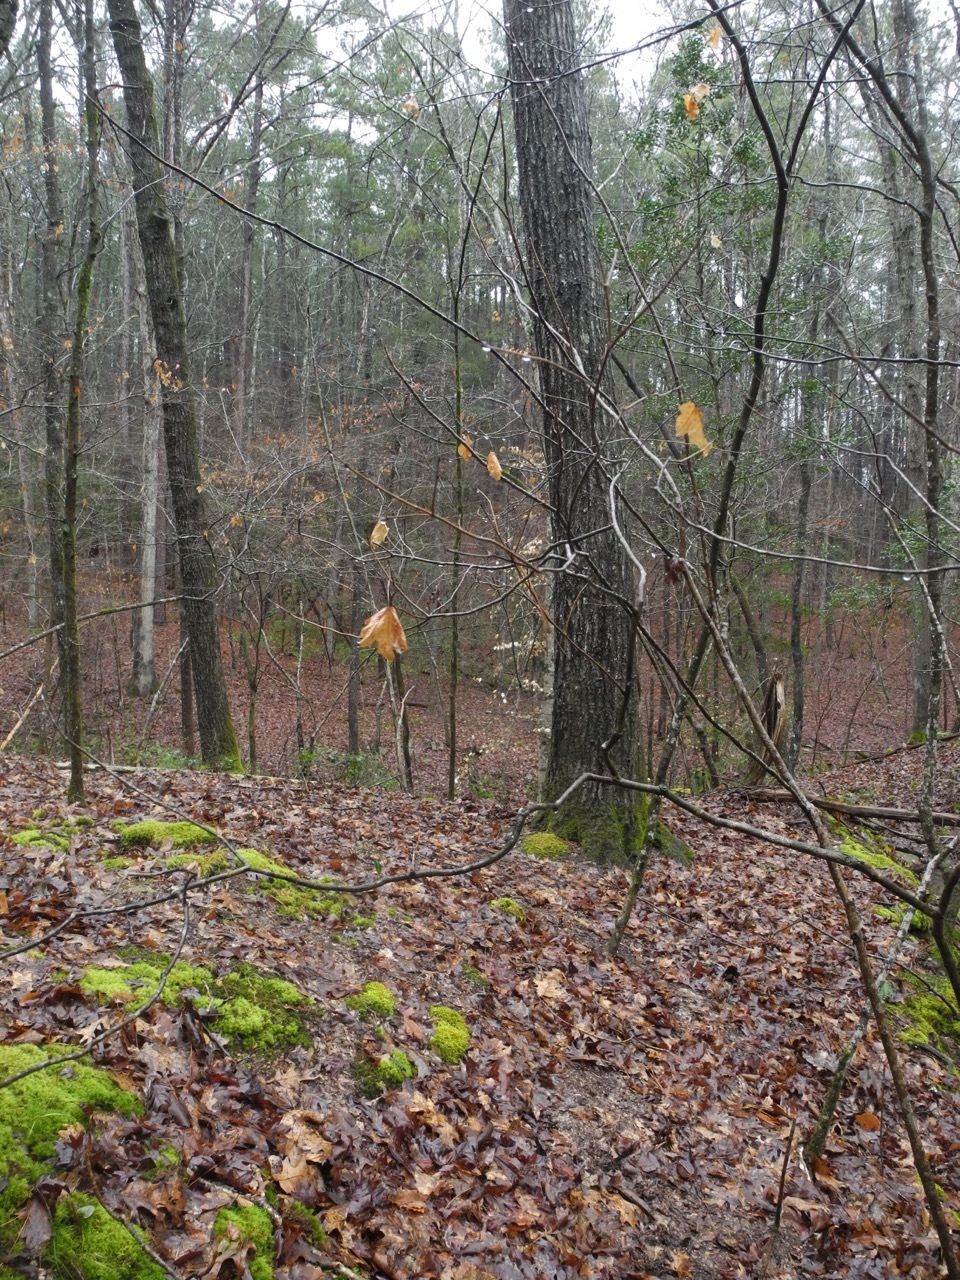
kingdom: Plantae
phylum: Tracheophyta
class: Magnoliopsida
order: Sapindales
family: Sapindaceae
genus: Acer
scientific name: Acer floridanum
